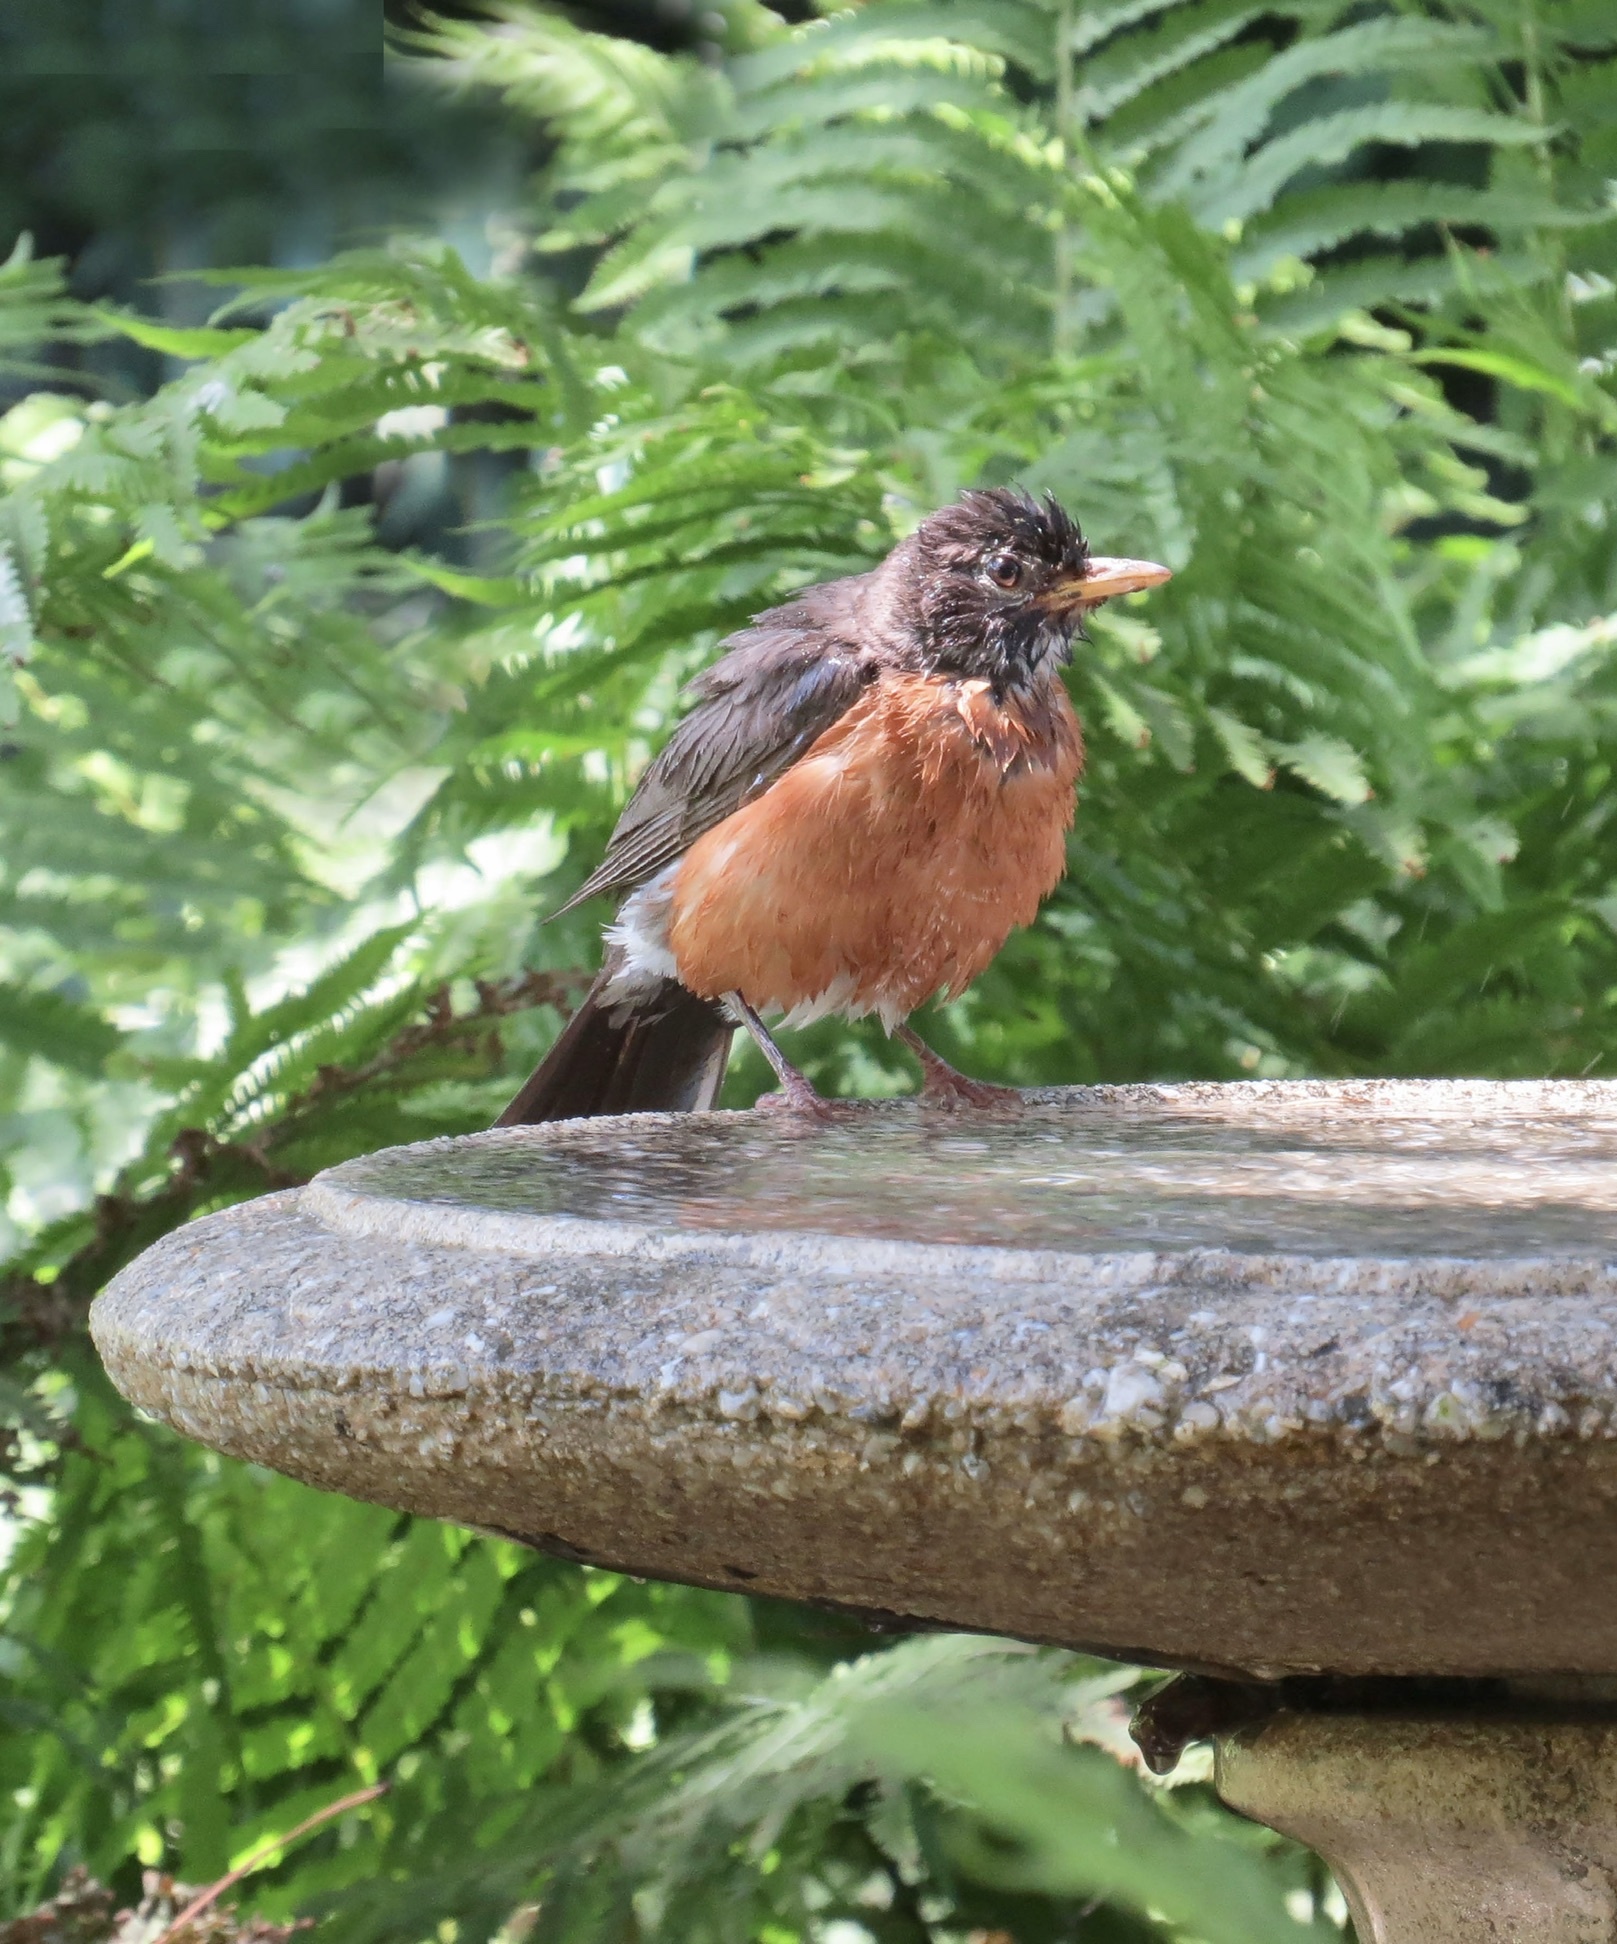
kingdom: Animalia
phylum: Chordata
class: Aves
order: Passeriformes
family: Turdidae
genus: Turdus
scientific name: Turdus migratorius
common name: American robin
